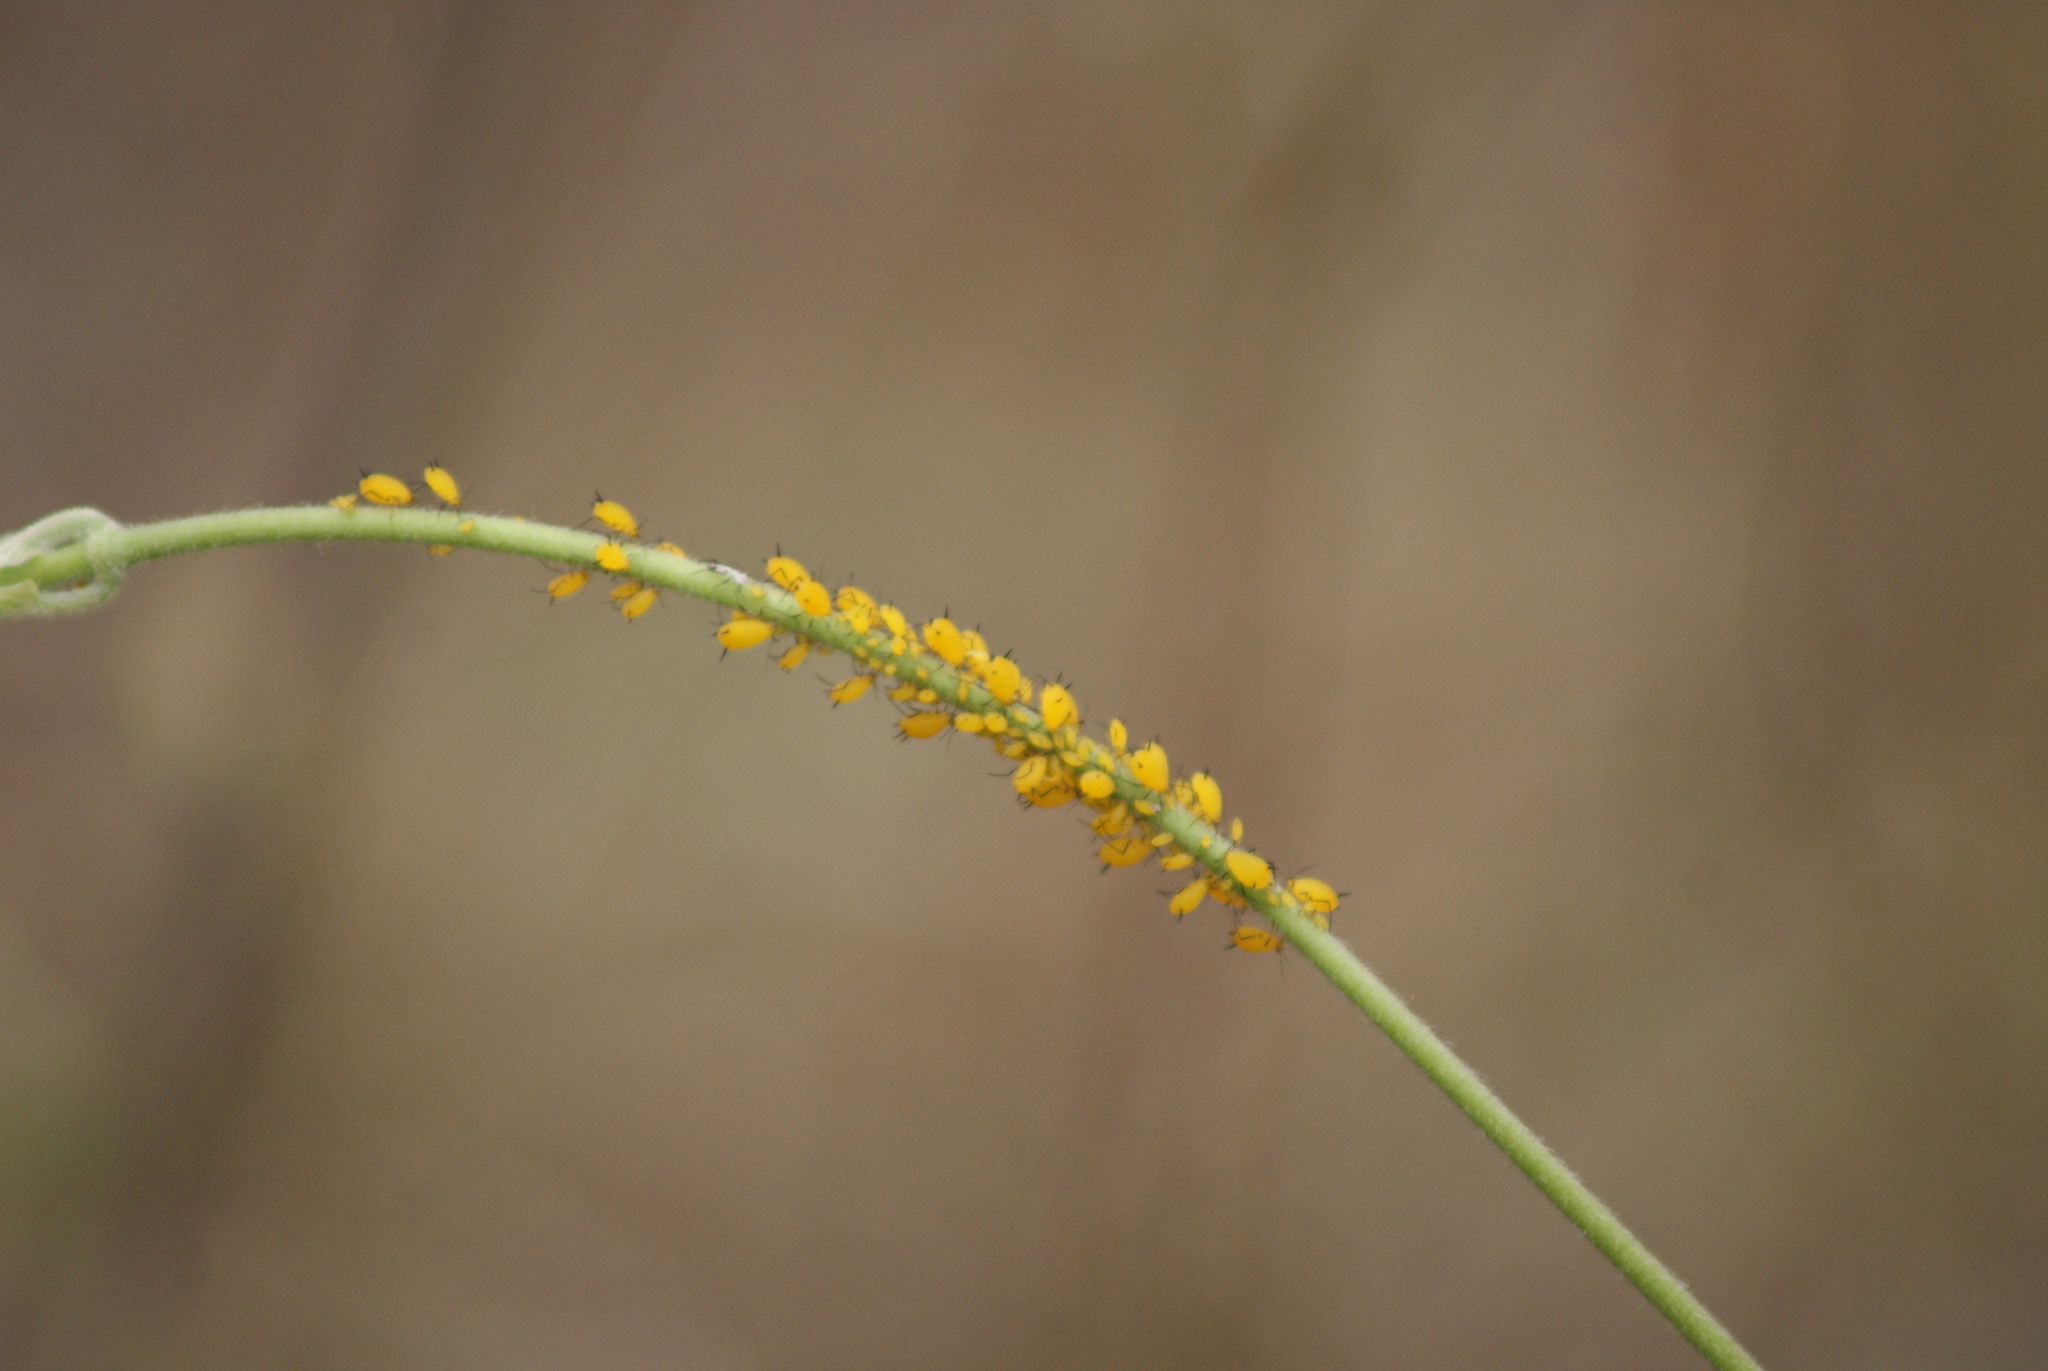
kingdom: Animalia
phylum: Arthropoda
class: Insecta
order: Hemiptera
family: Aphididae
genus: Aphis
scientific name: Aphis nerii
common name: Oleander aphid
